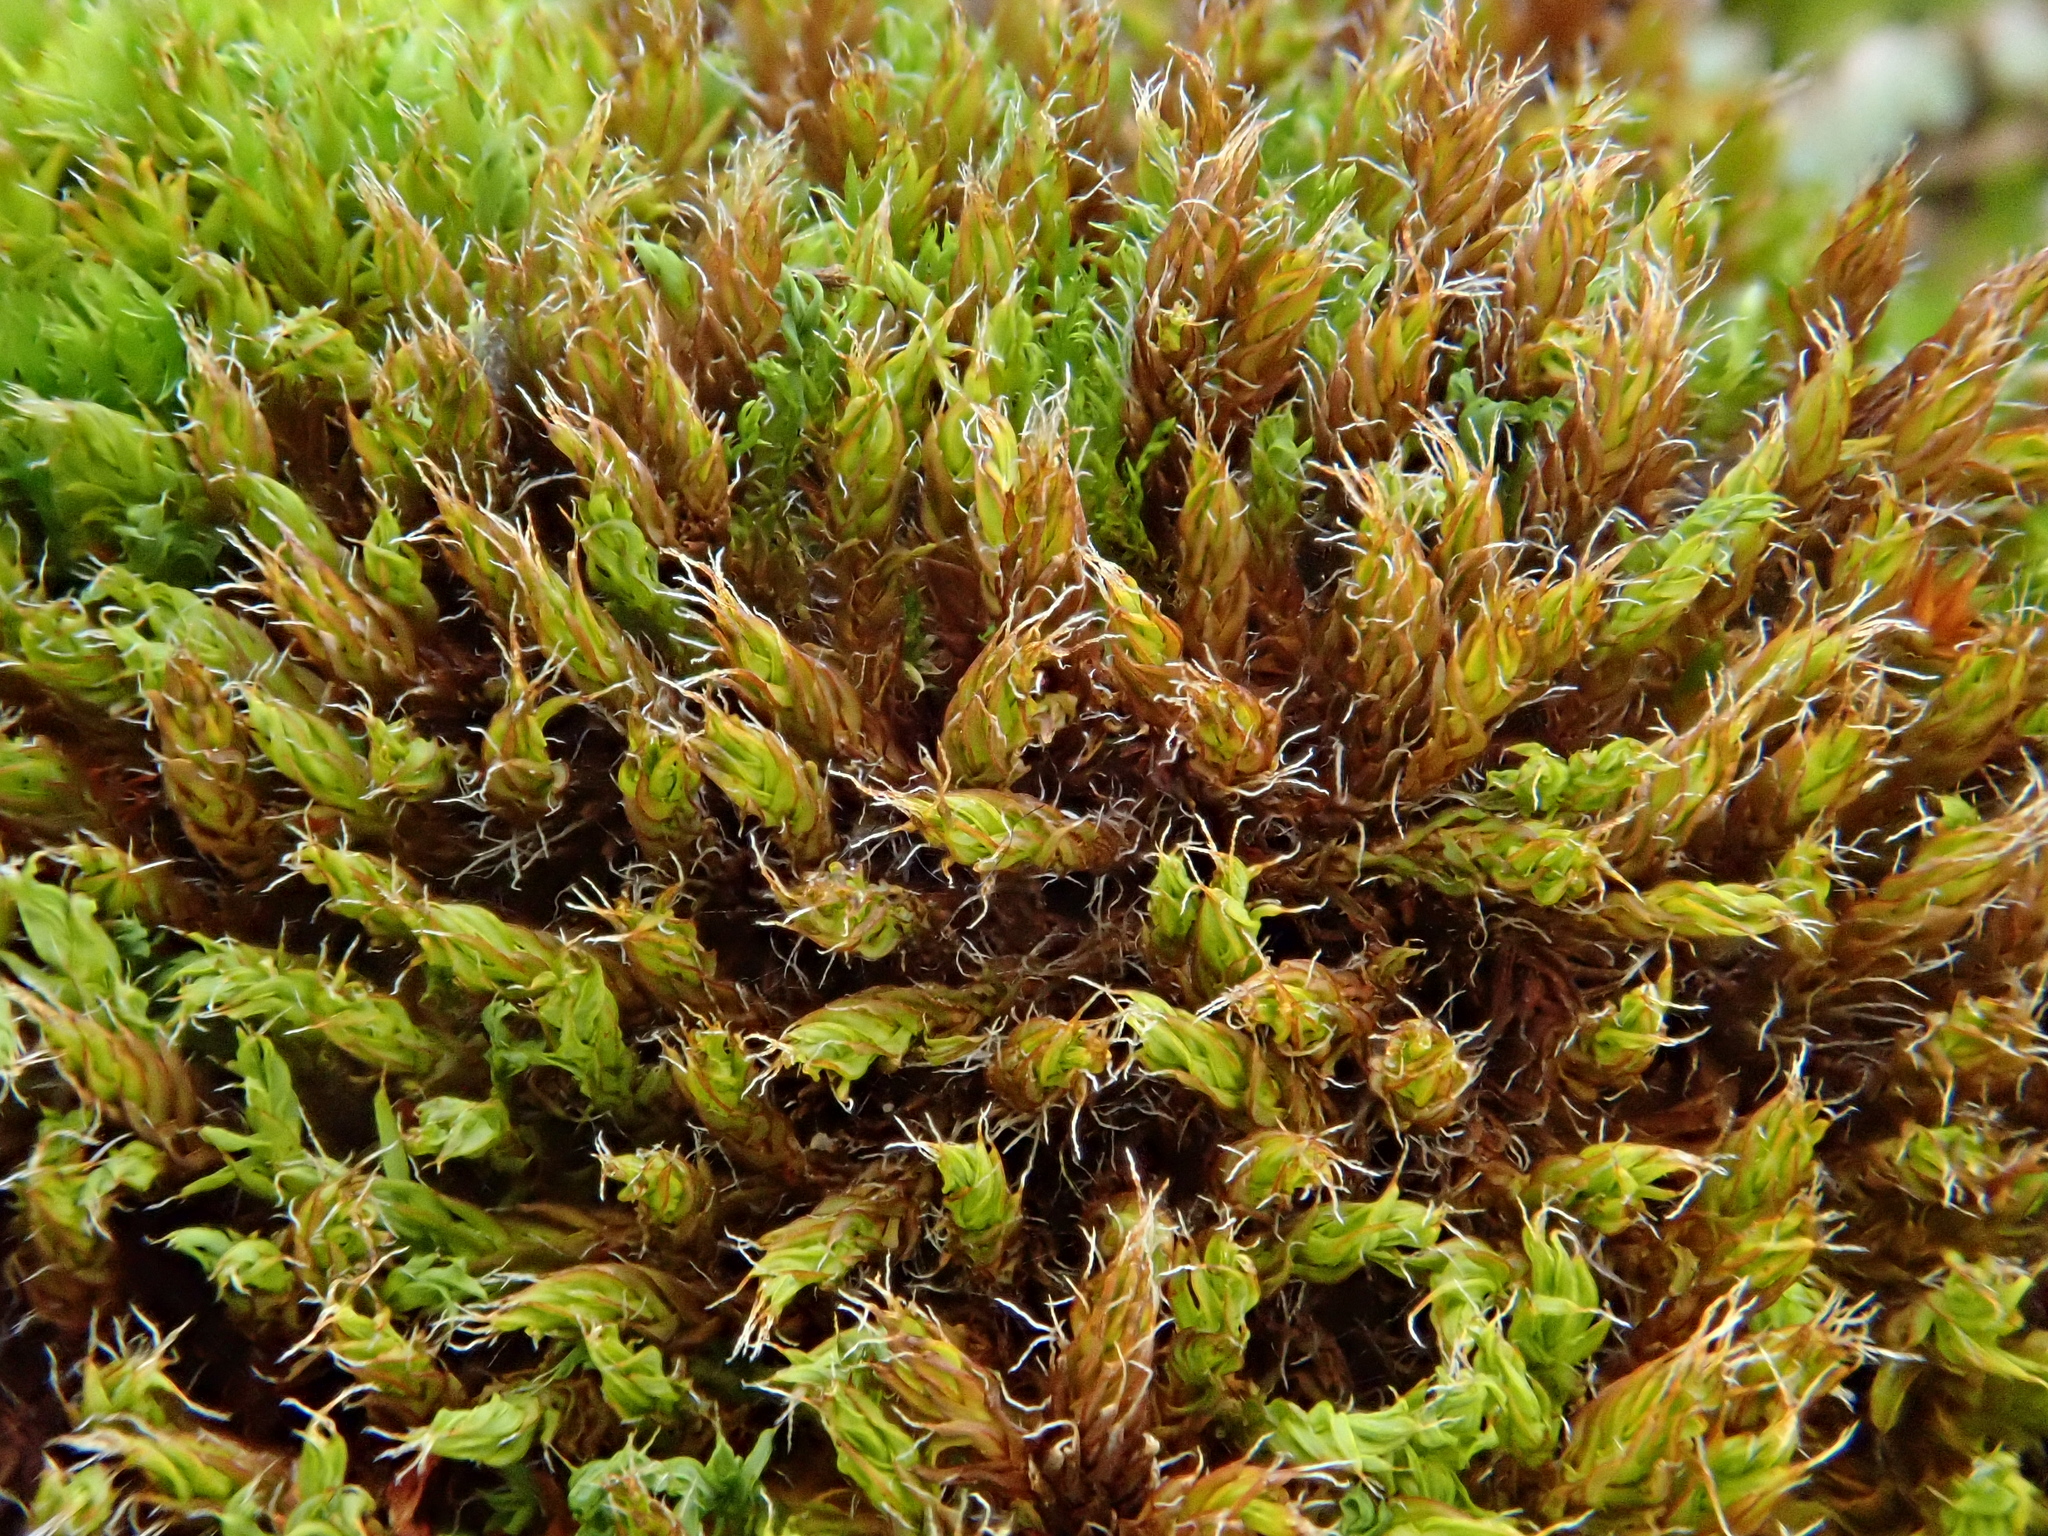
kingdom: Plantae
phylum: Bryophyta
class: Bryopsida
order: Pottiales
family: Pottiaceae
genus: Syntrichia
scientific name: Syntrichia ruralis
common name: Sidewalk screw moss
